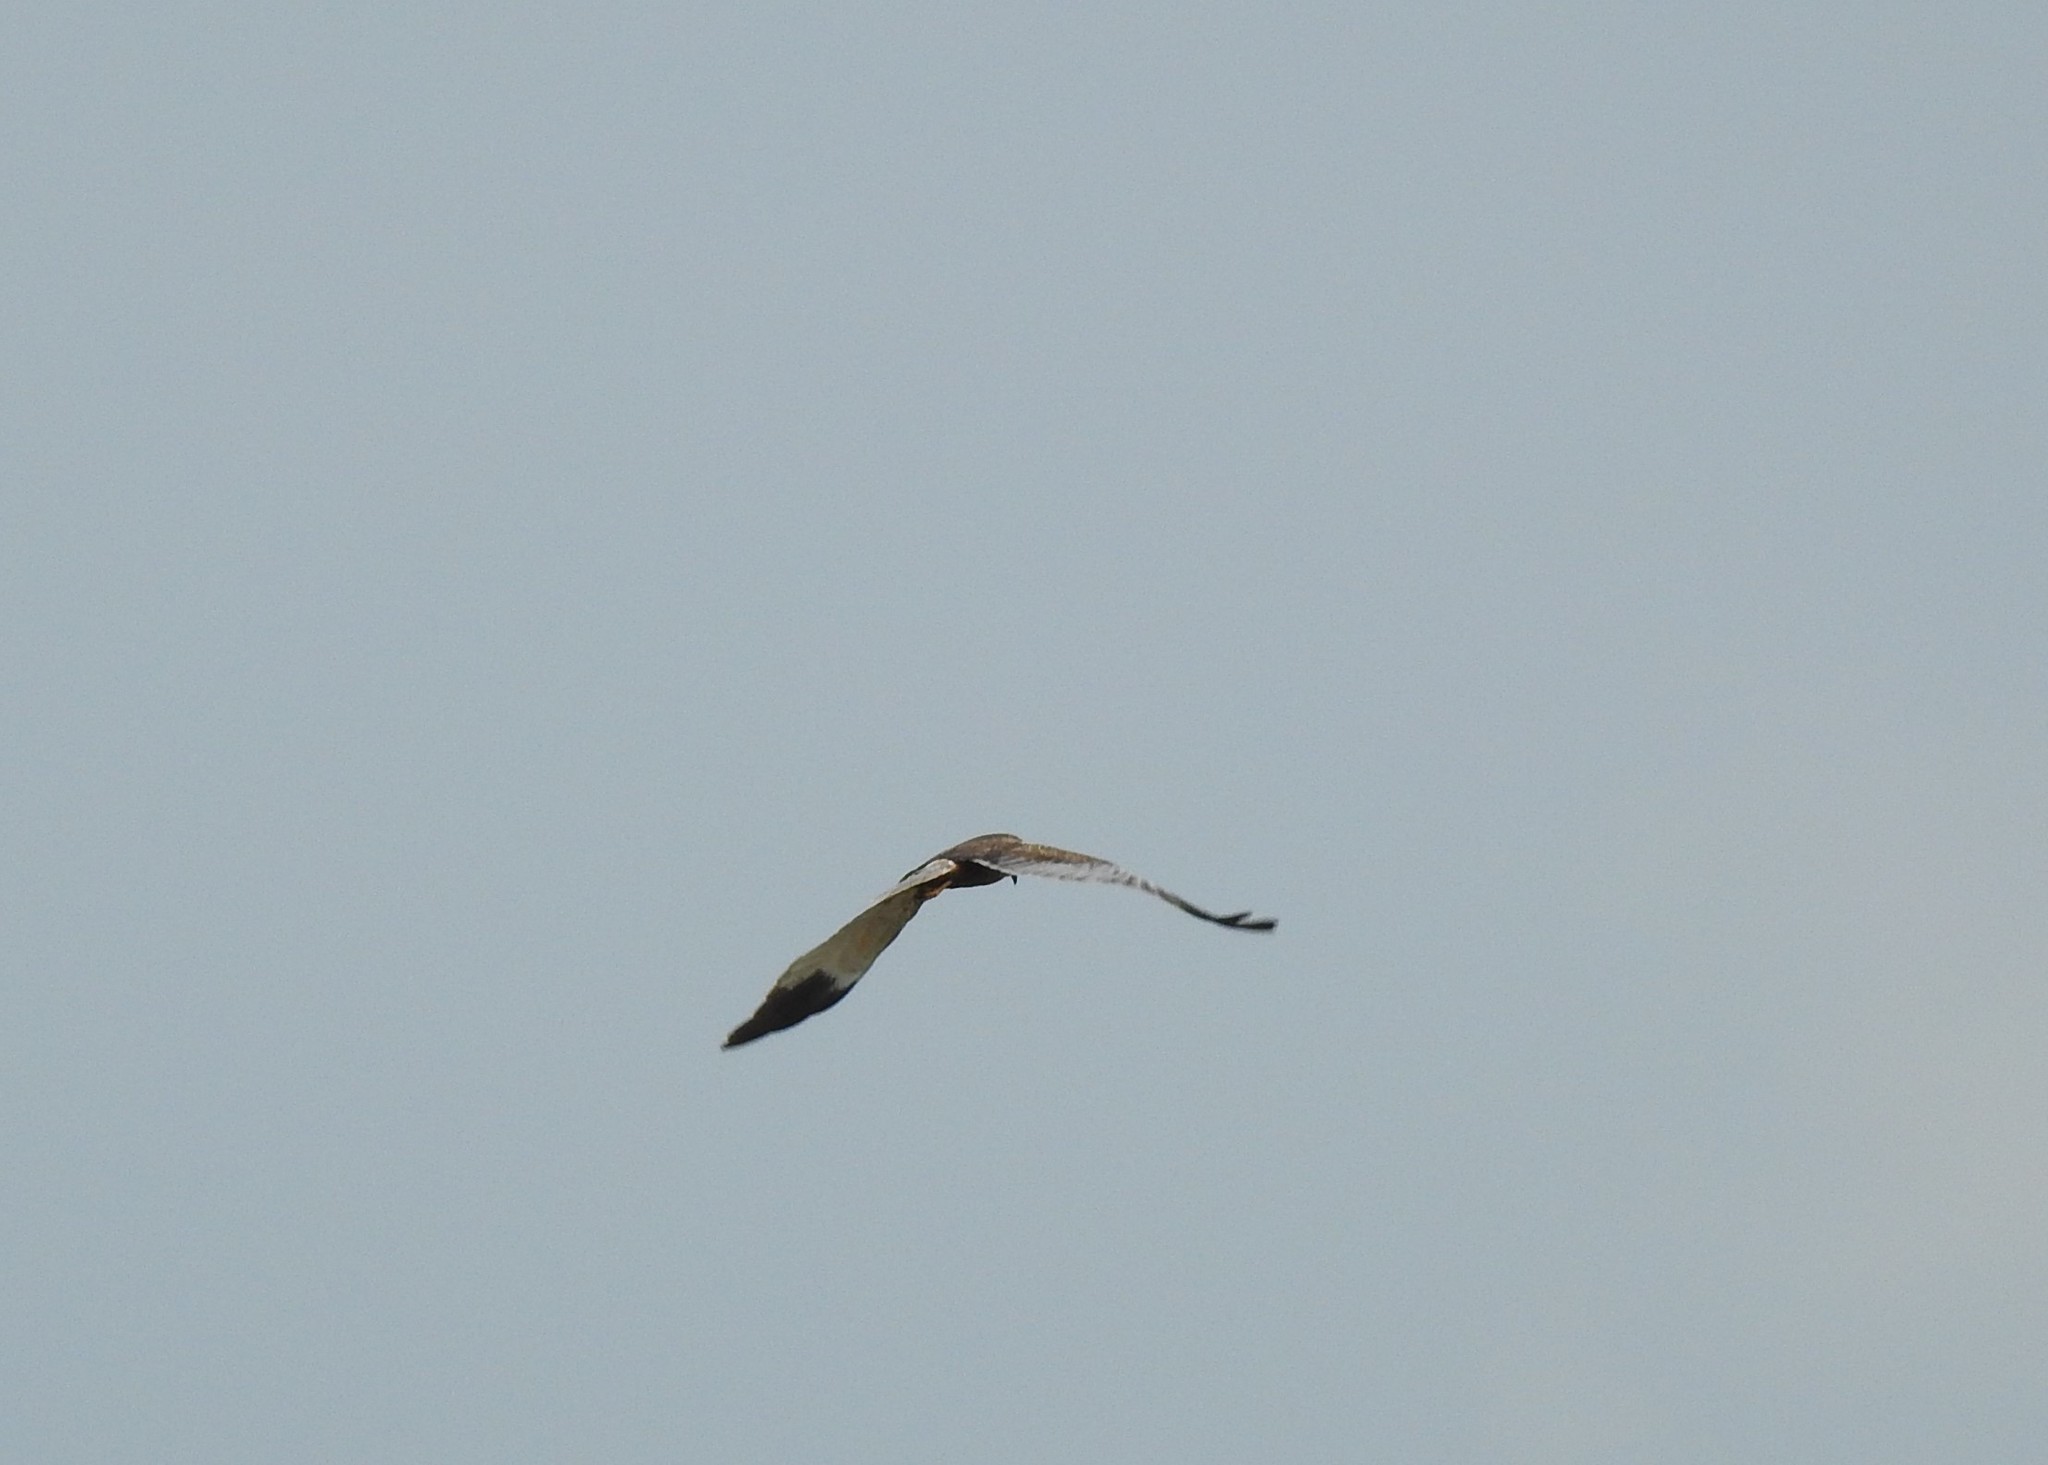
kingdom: Animalia
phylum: Chordata
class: Aves
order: Accipitriformes
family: Accipitridae
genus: Circus
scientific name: Circus aeruginosus
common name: Western marsh harrier
